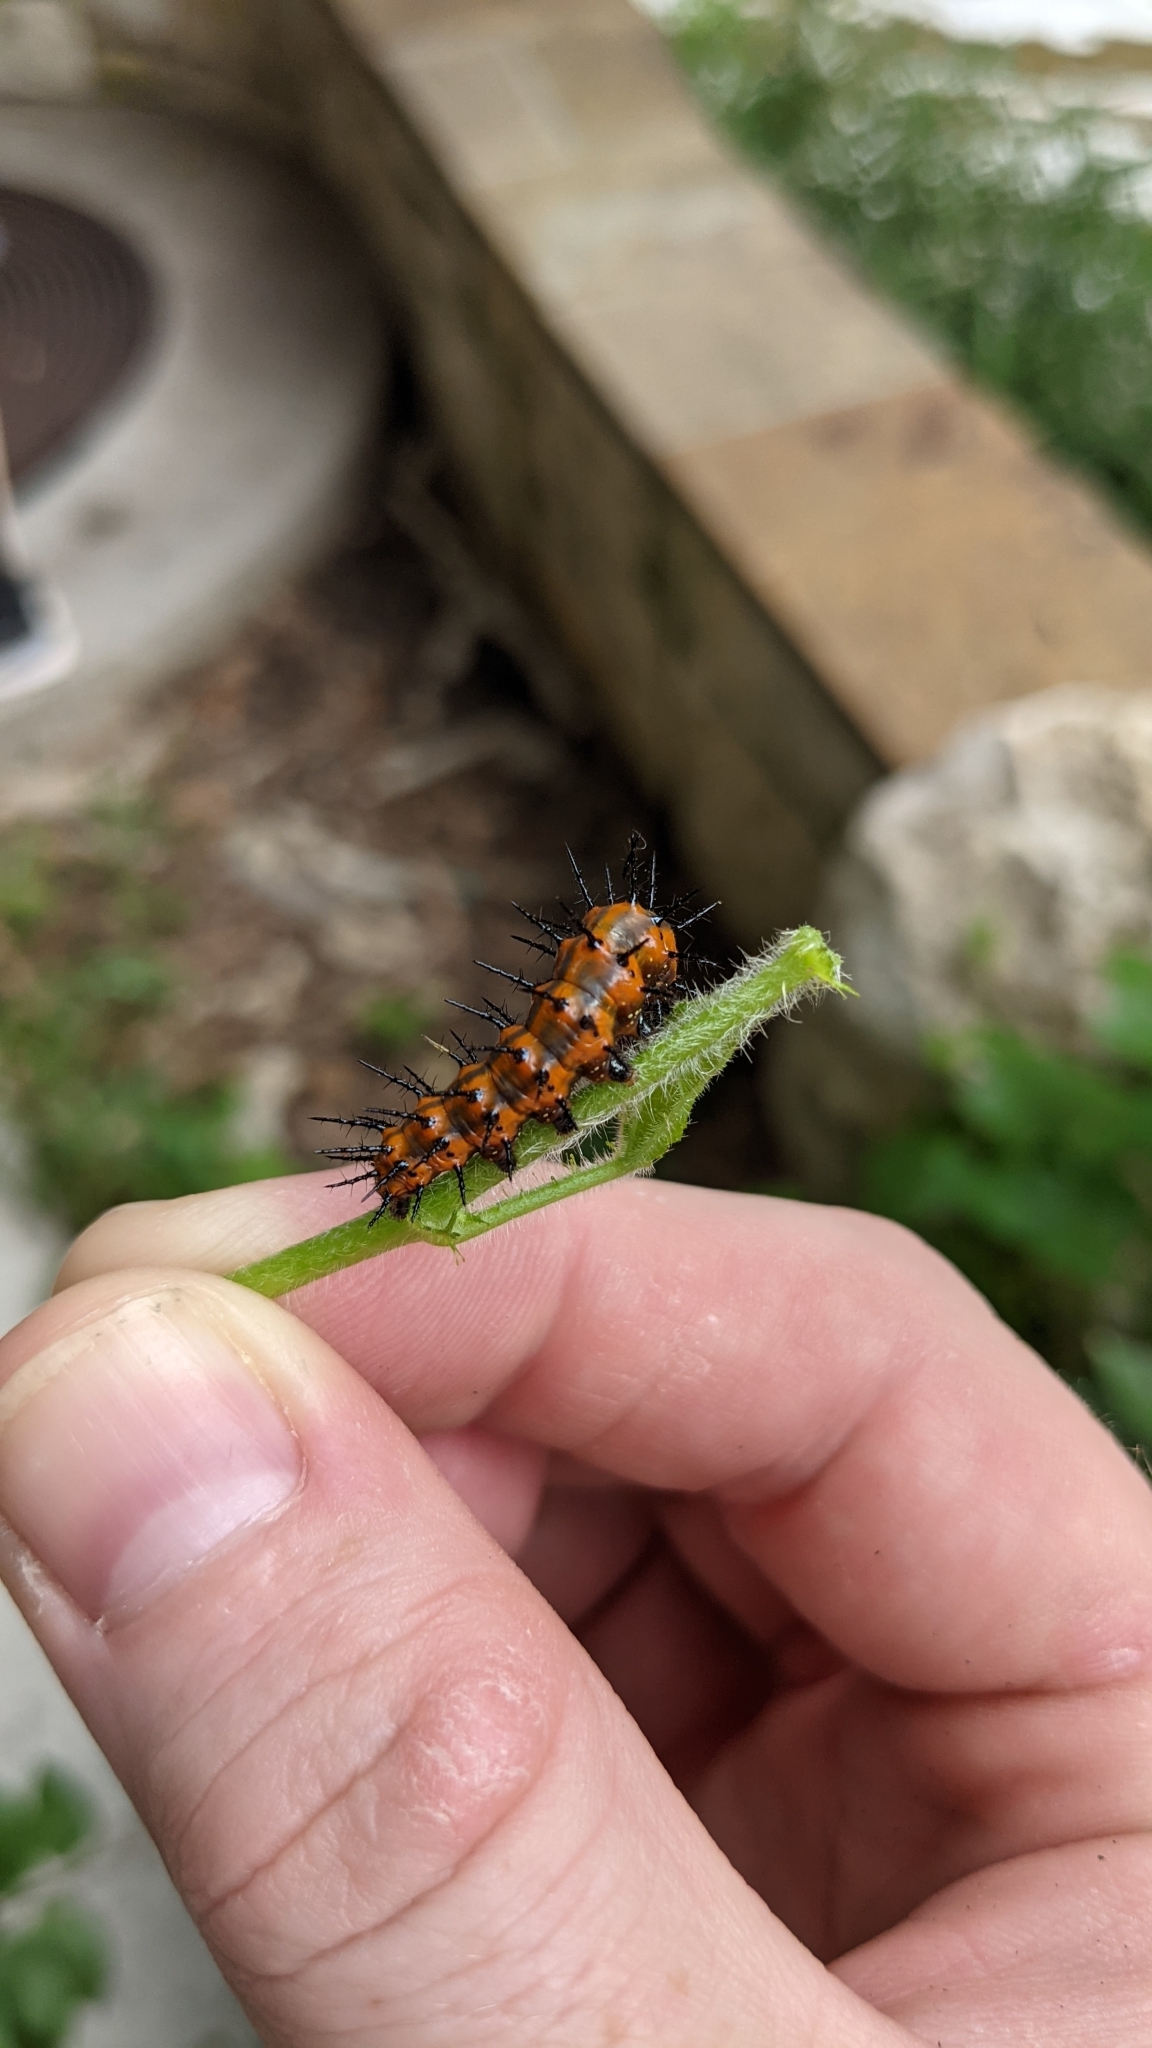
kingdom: Animalia
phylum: Arthropoda
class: Insecta
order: Lepidoptera
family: Nymphalidae
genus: Dione
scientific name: Dione vanillae
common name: Gulf fritillary
